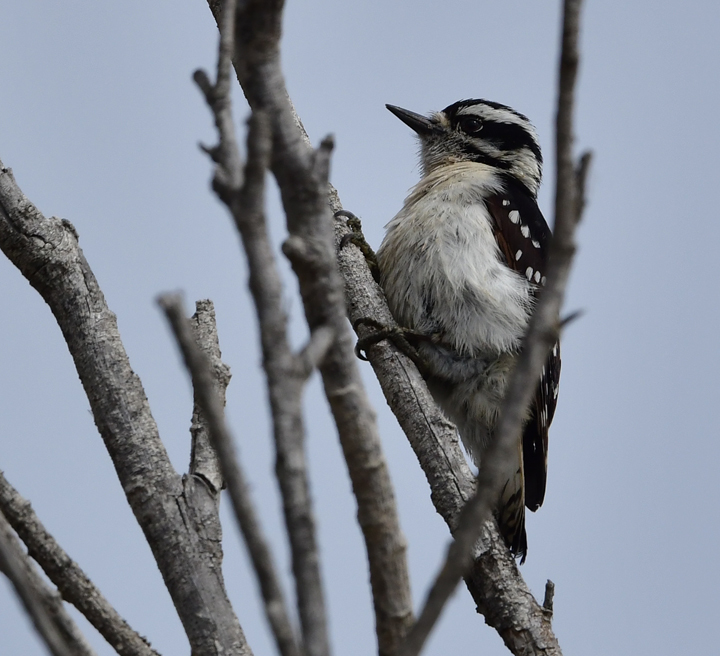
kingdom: Animalia
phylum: Chordata
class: Aves
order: Piciformes
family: Picidae
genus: Dryobates
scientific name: Dryobates pubescens
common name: Downy woodpecker
